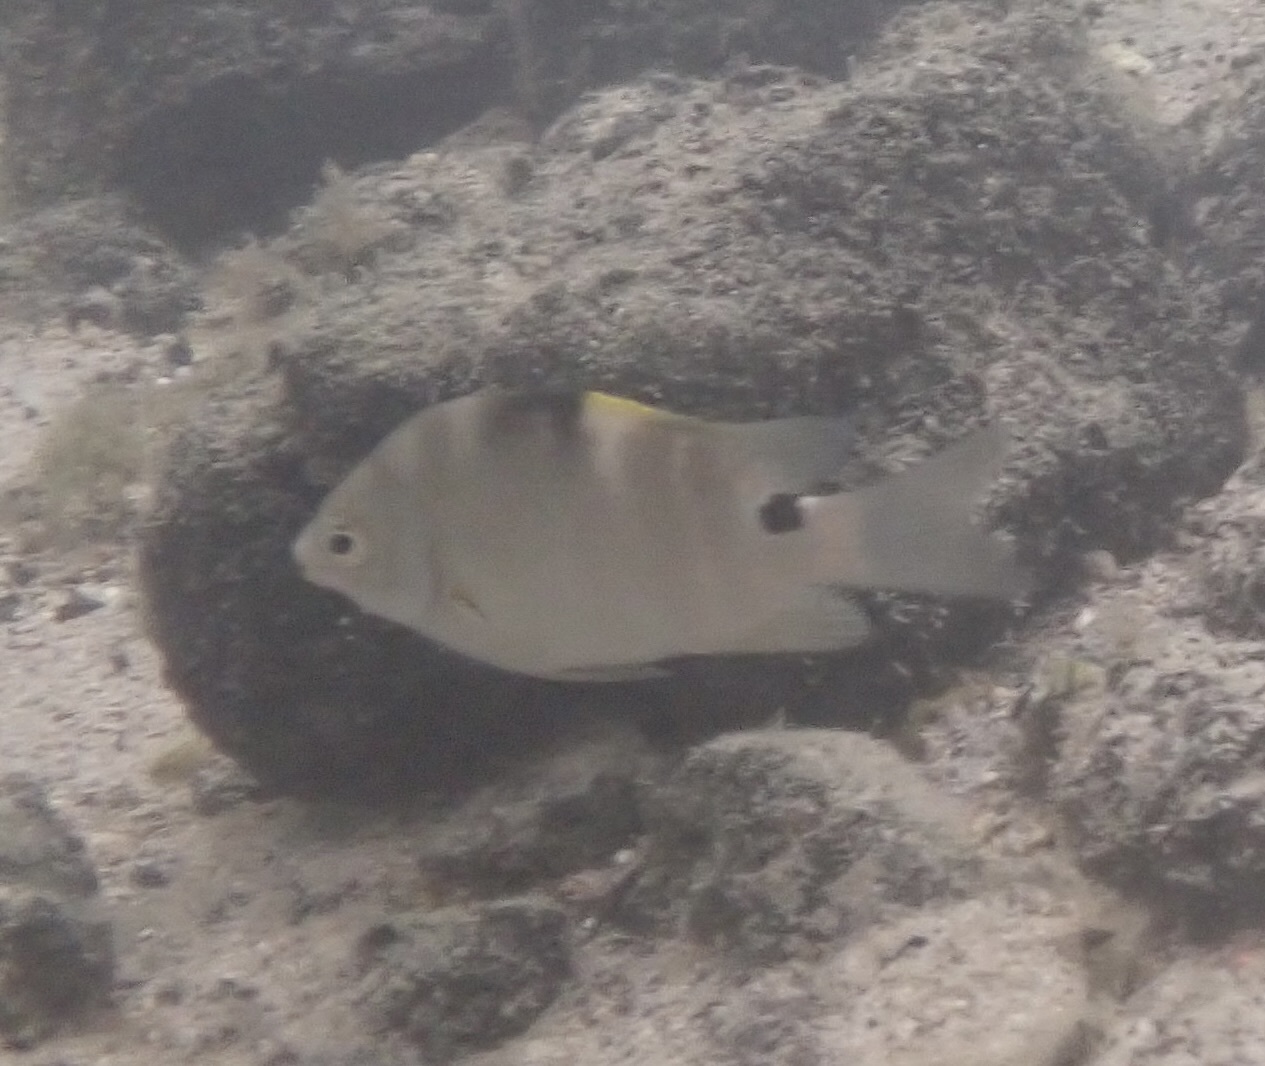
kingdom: Animalia
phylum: Chordata
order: Perciformes
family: Pomacentridae
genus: Abudefduf
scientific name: Abudefduf sordidus
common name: Blackspot sergeant
